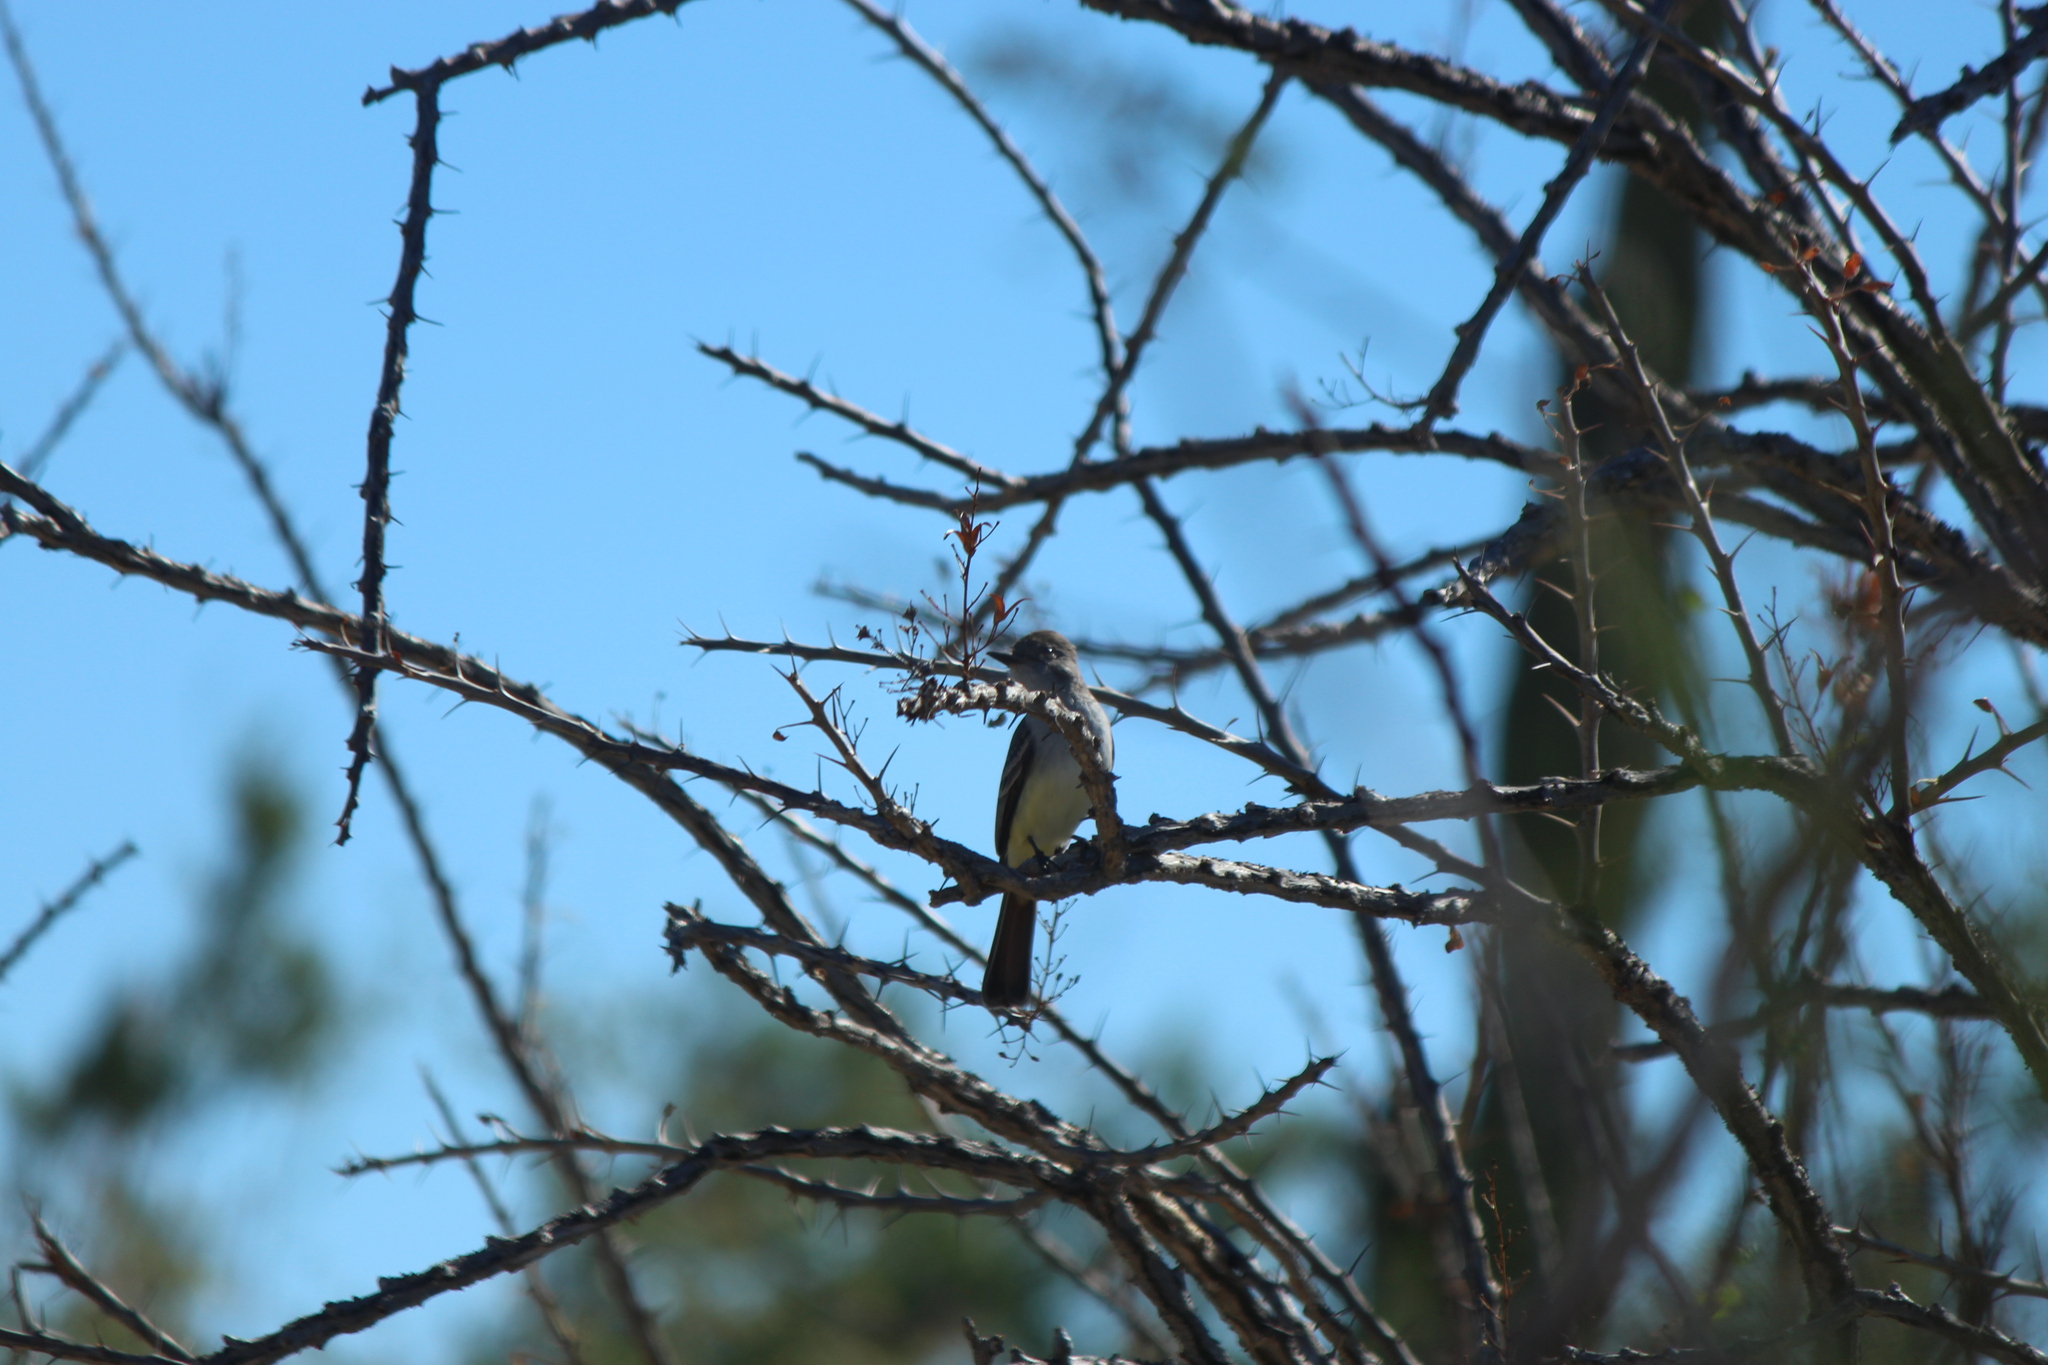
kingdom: Animalia
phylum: Chordata
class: Aves
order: Passeriformes
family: Tyrannidae
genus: Myiarchus
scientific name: Myiarchus cinerascens
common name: Ash-throated flycatcher
